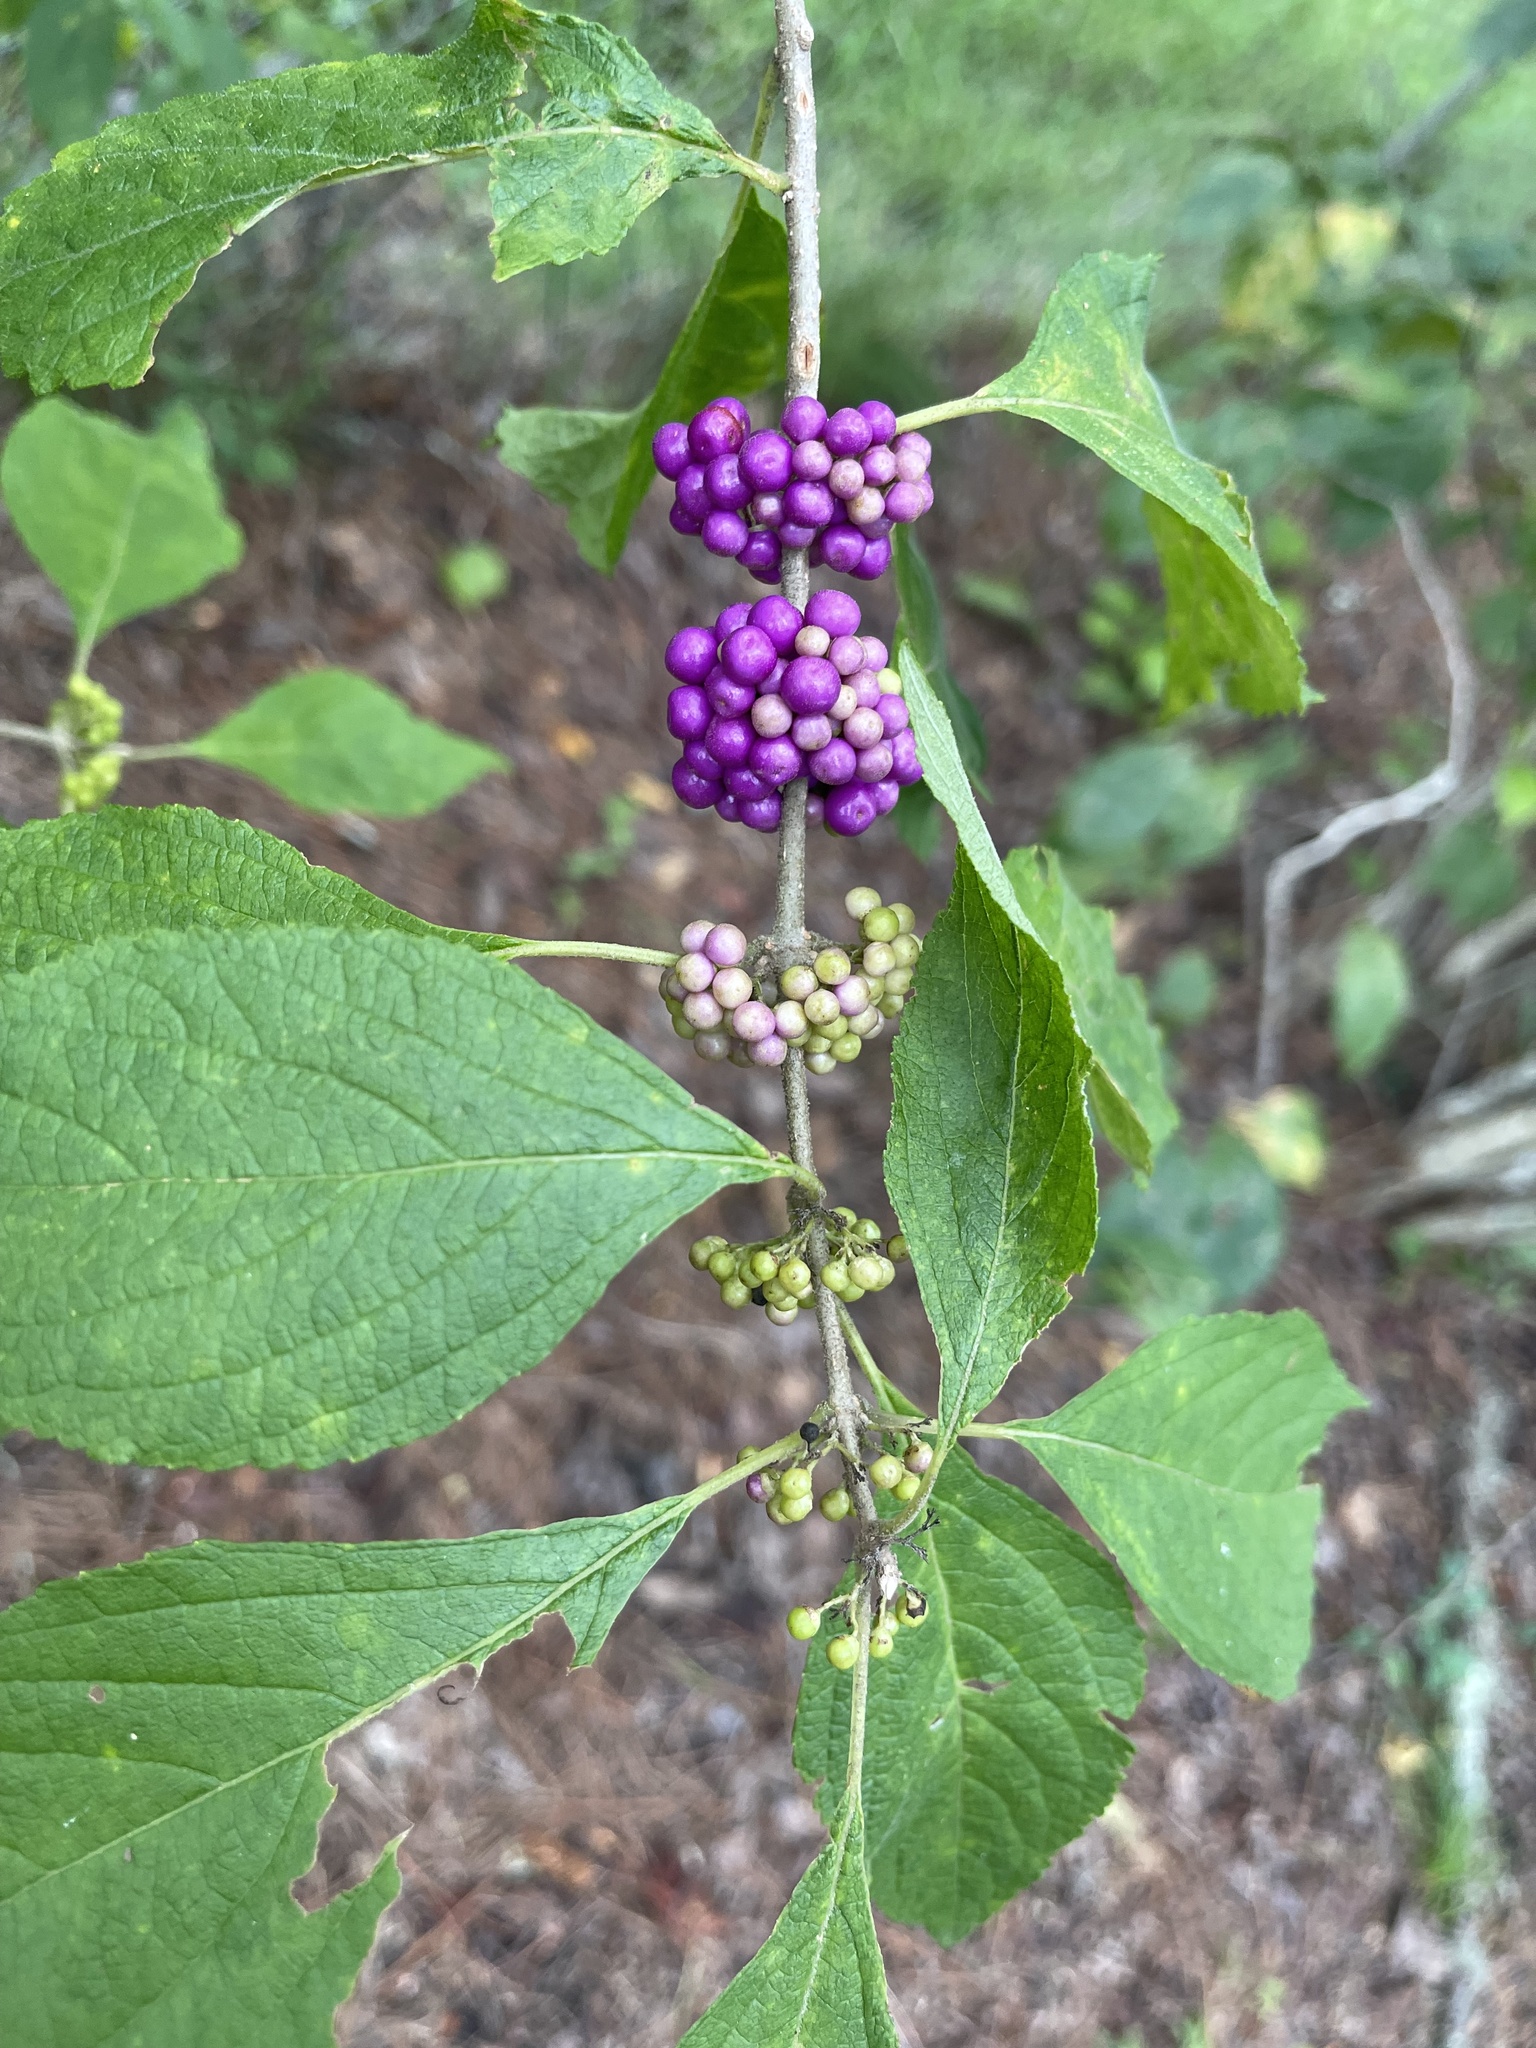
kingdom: Plantae
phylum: Tracheophyta
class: Magnoliopsida
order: Lamiales
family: Lamiaceae
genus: Callicarpa
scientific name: Callicarpa americana
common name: American beautyberry
